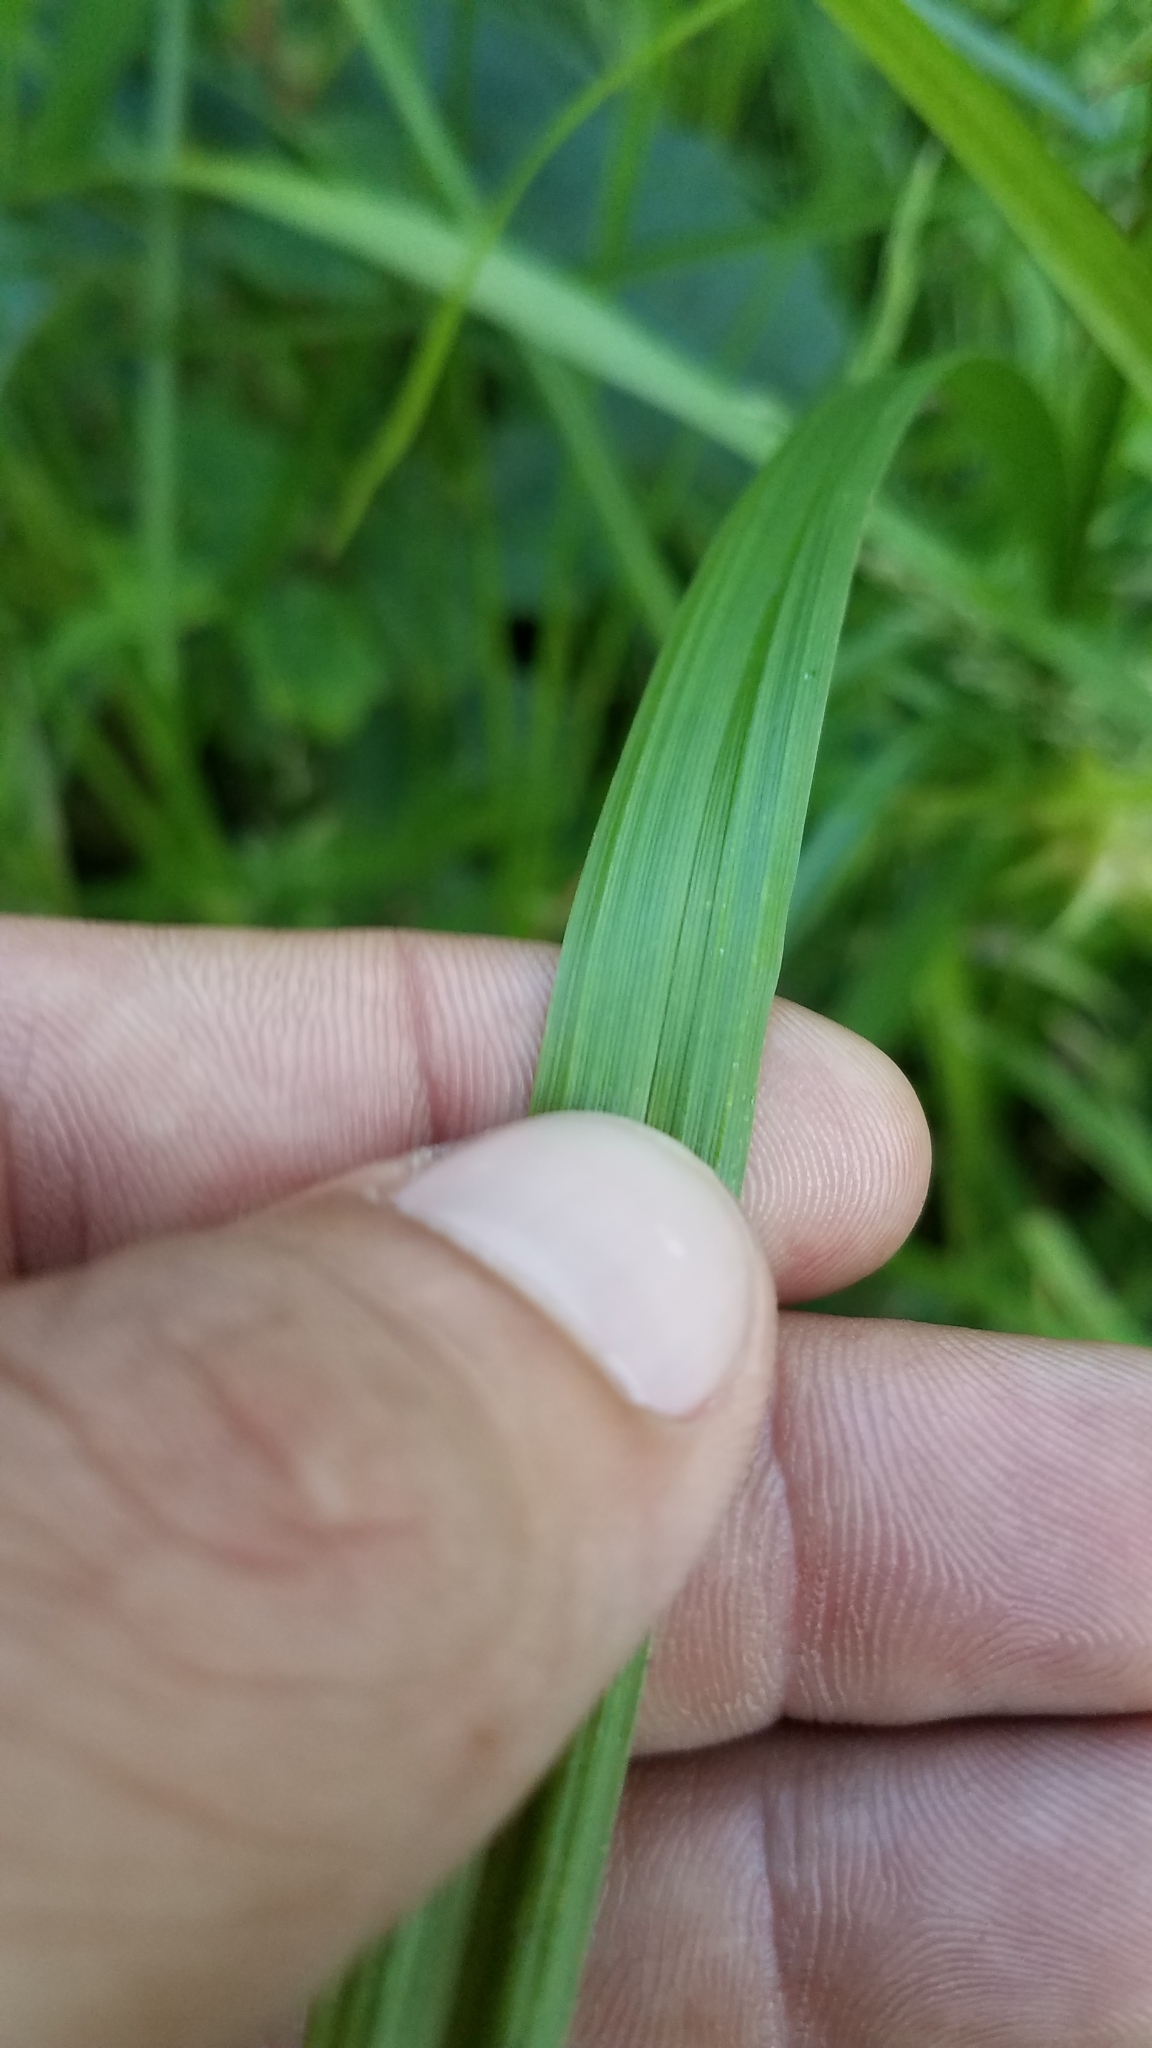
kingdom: Plantae
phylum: Tracheophyta
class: Liliopsida
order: Poales
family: Cyperaceae
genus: Carex
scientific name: Carex grayi
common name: Asa gray's sedge
